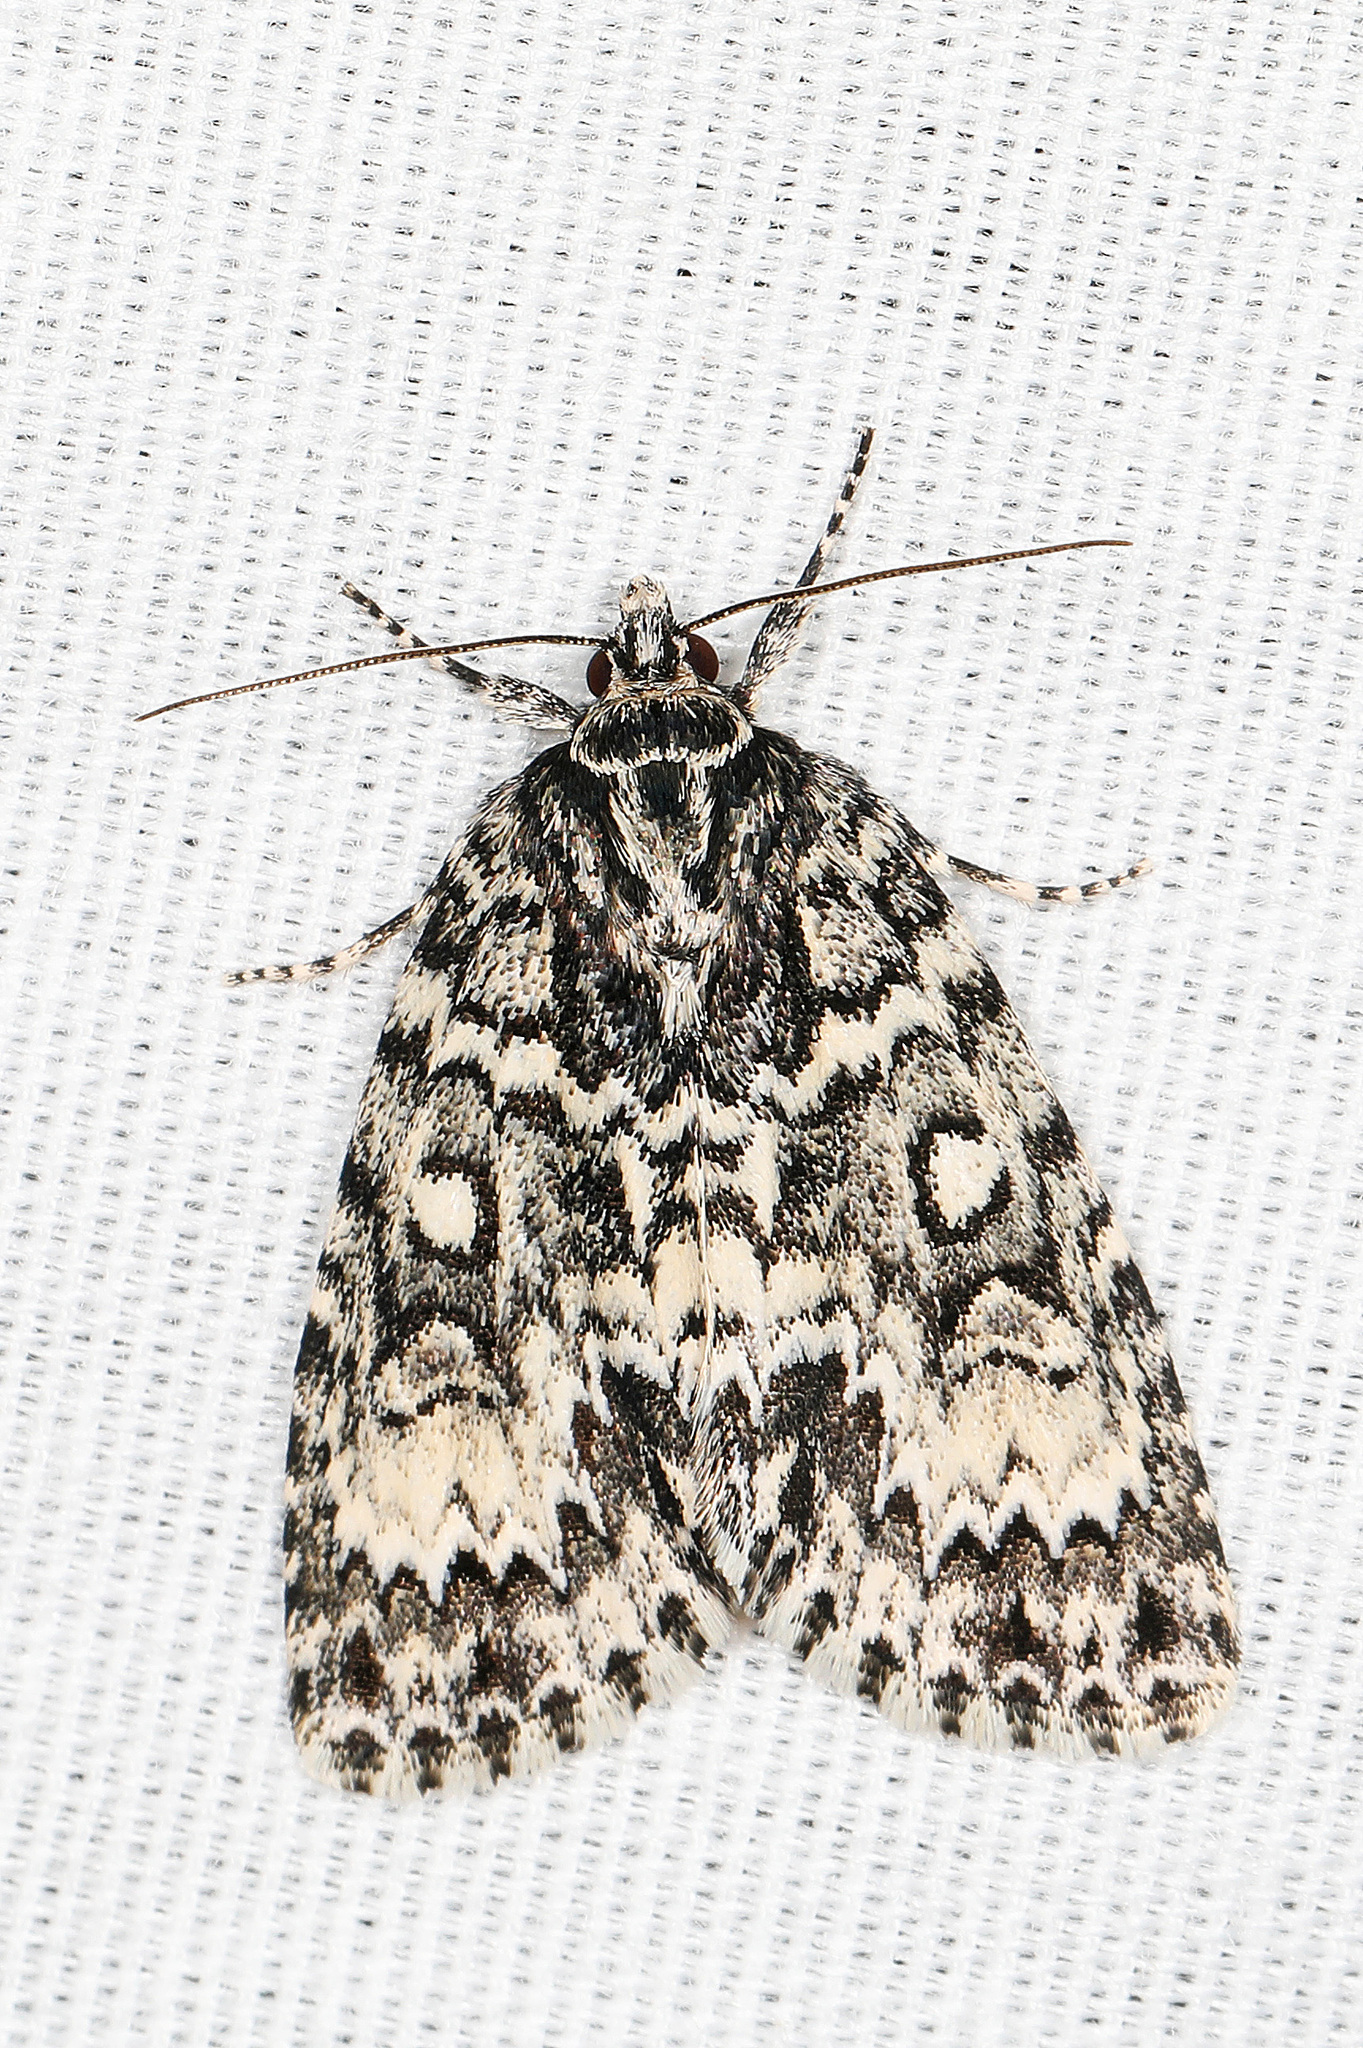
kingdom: Animalia
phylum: Arthropoda
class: Insecta
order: Lepidoptera
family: Noctuidae
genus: Acronicta
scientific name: Acronicta fragilis
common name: Fragile dagger
